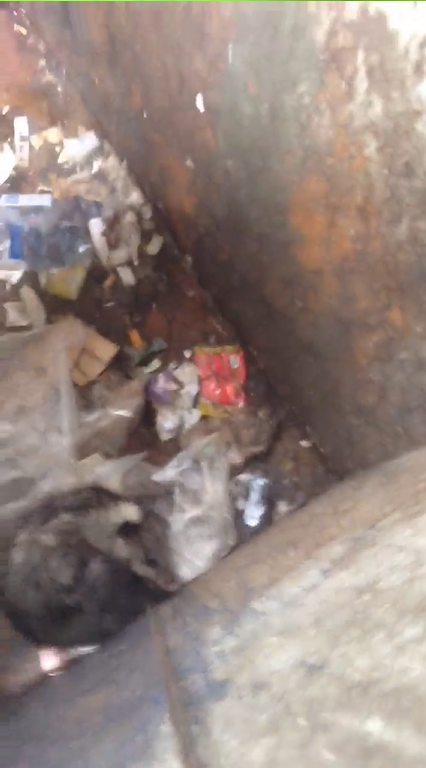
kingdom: Animalia
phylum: Chordata
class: Mammalia
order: Didelphimorphia
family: Didelphidae
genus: Didelphis
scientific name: Didelphis virginiana
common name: Virginia opossum
